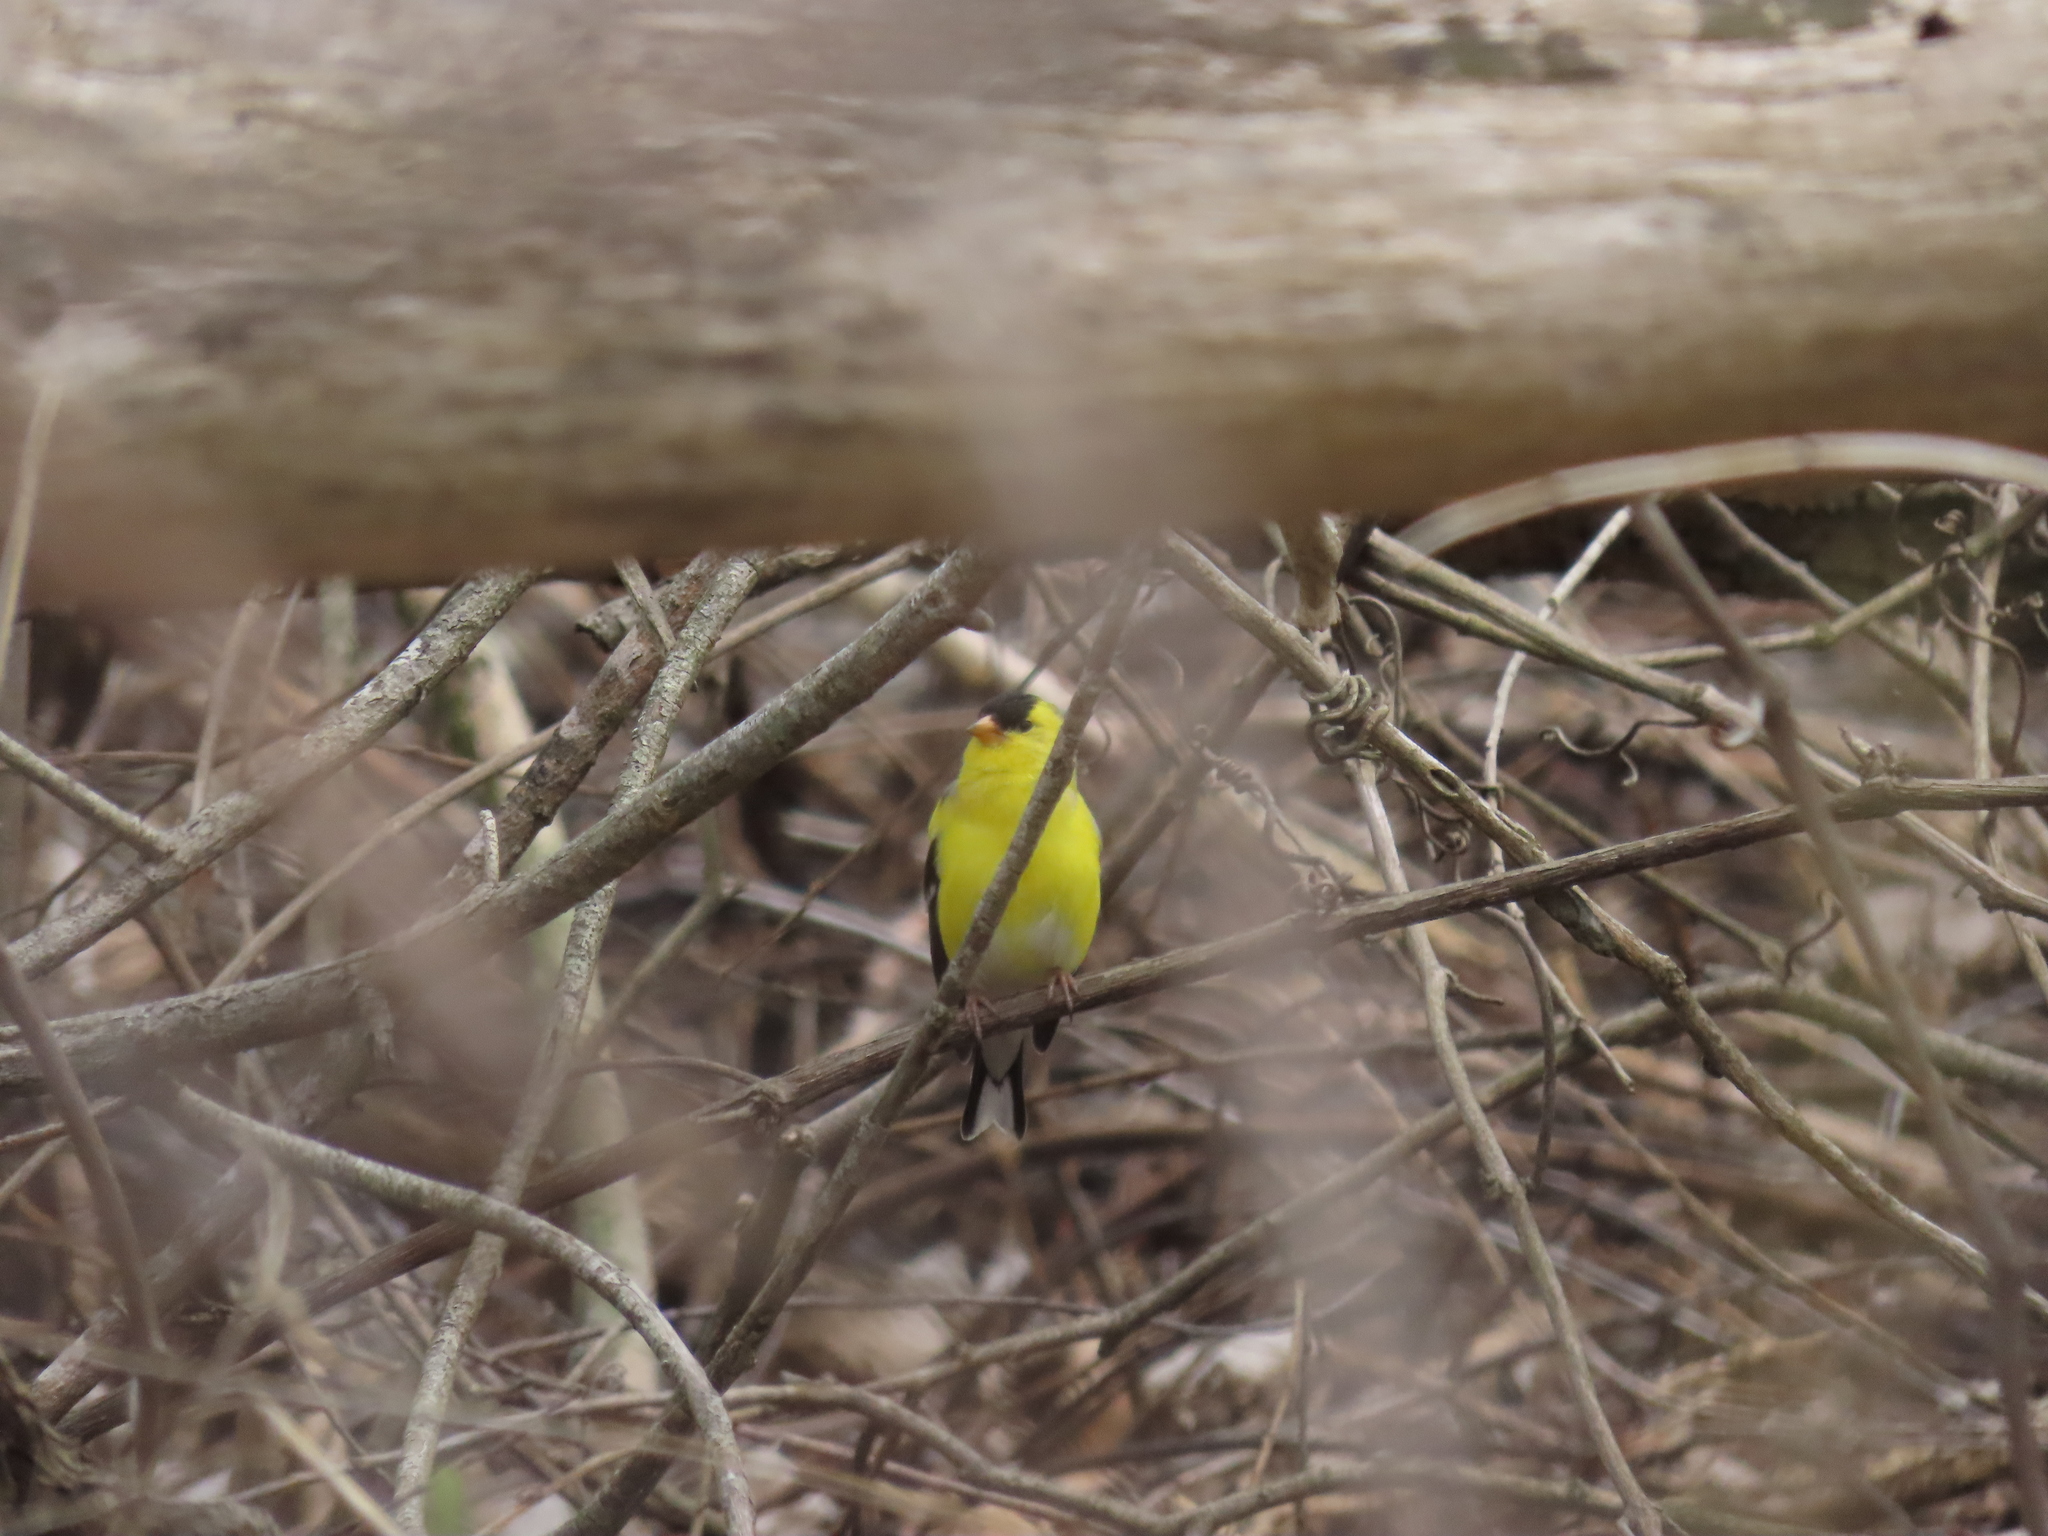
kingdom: Animalia
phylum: Chordata
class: Aves
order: Passeriformes
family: Fringillidae
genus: Spinus
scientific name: Spinus tristis
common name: American goldfinch
